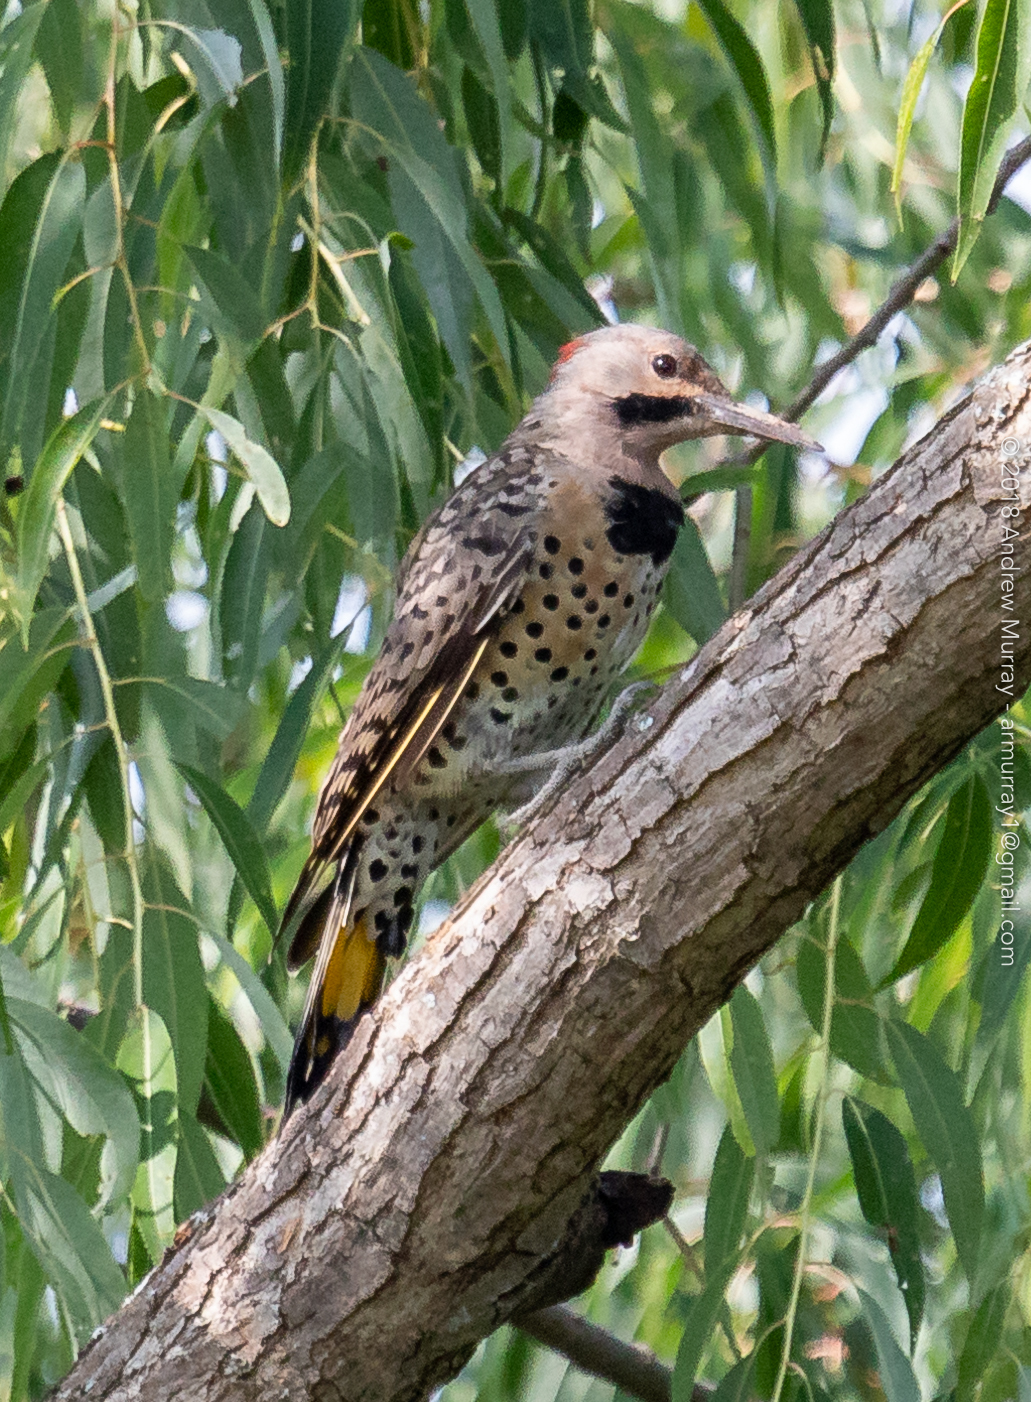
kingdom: Animalia
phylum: Chordata
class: Aves
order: Piciformes
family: Picidae
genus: Colaptes
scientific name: Colaptes auratus
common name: Northern flicker
